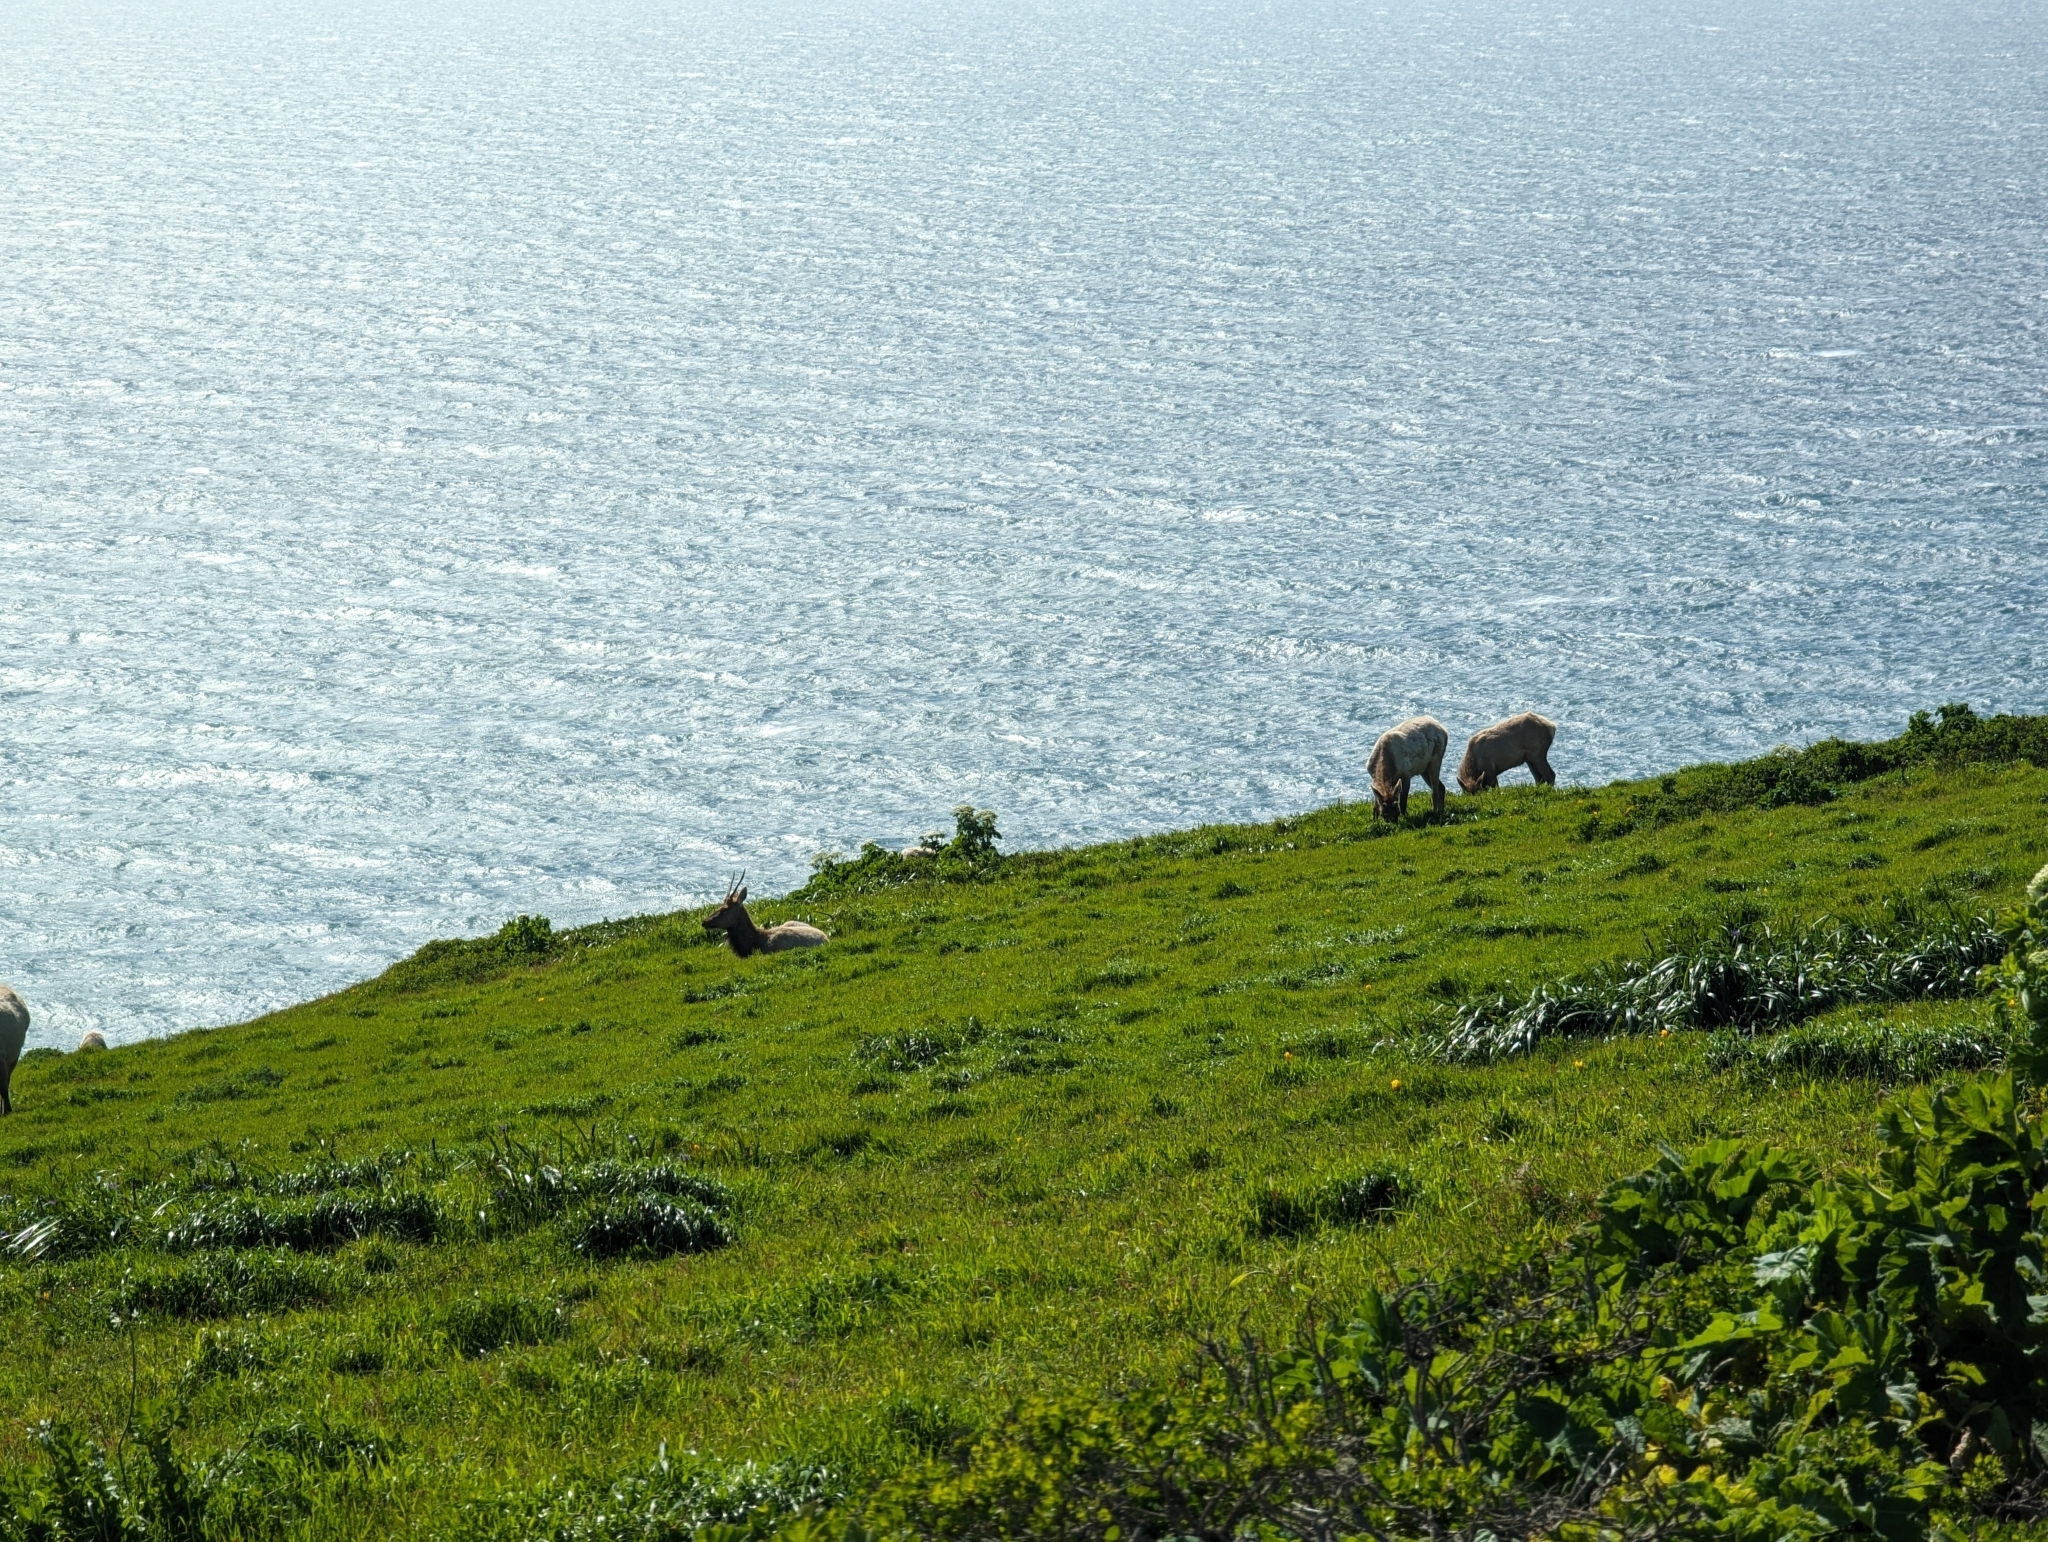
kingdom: Animalia
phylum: Chordata
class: Mammalia
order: Artiodactyla
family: Cervidae
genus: Cervus
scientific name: Cervus elaphus
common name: Red deer
